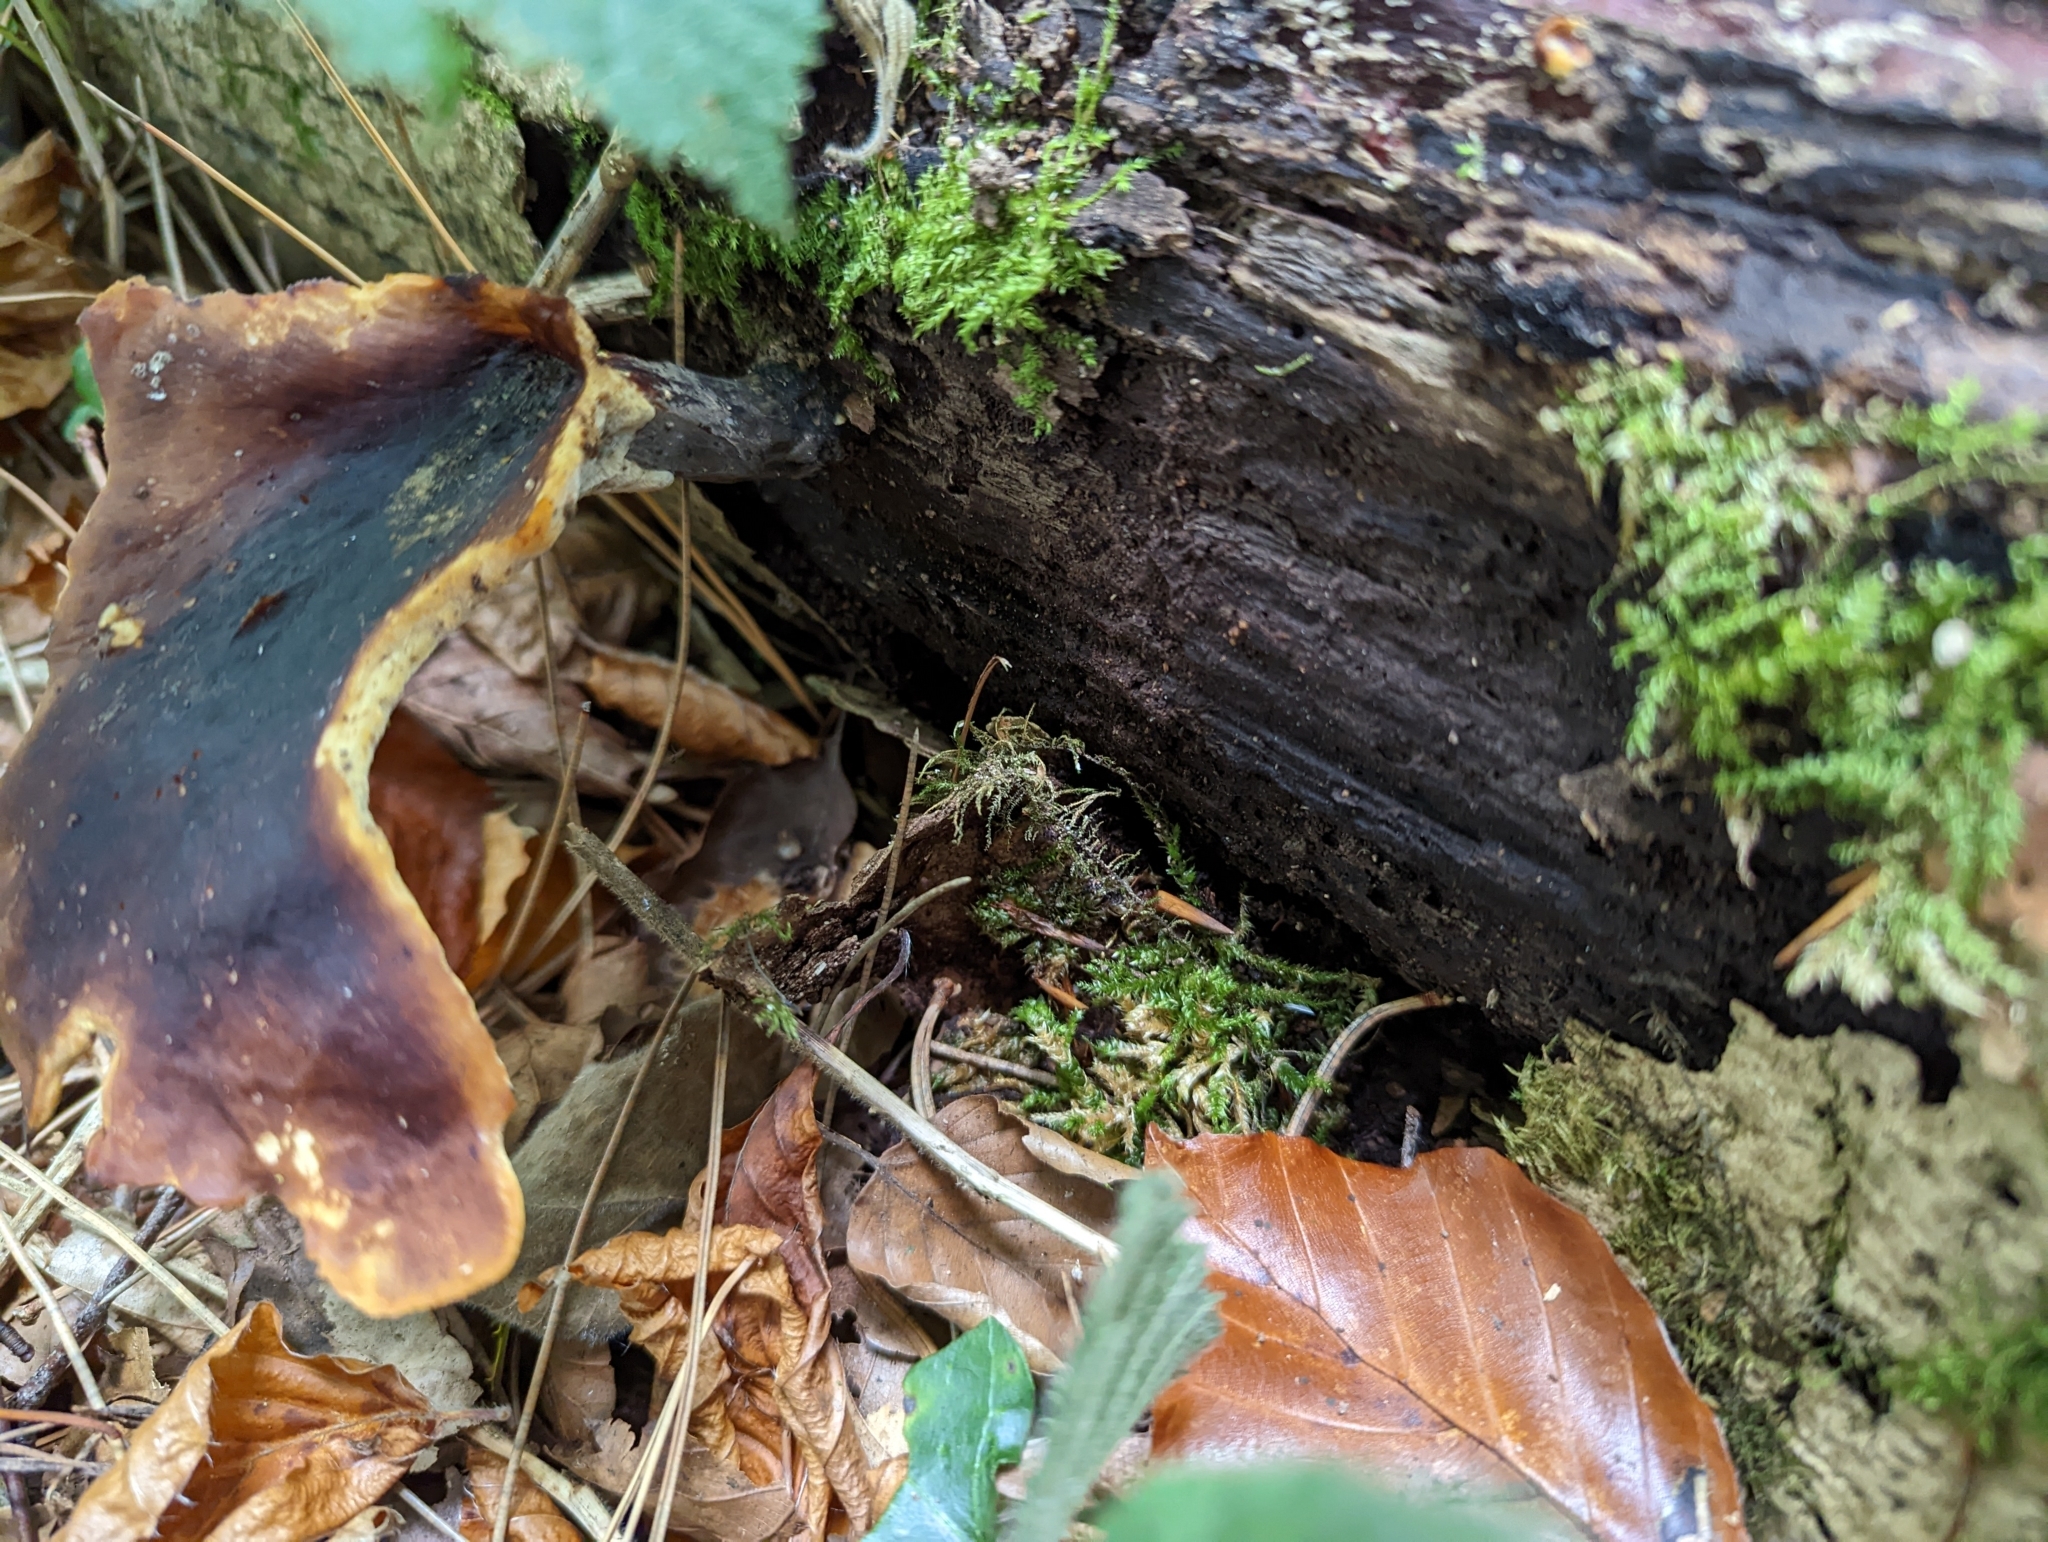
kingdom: Fungi
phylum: Basidiomycota
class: Agaricomycetes
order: Polyporales
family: Polyporaceae
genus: Picipes
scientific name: Picipes badius
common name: Bay polypore
